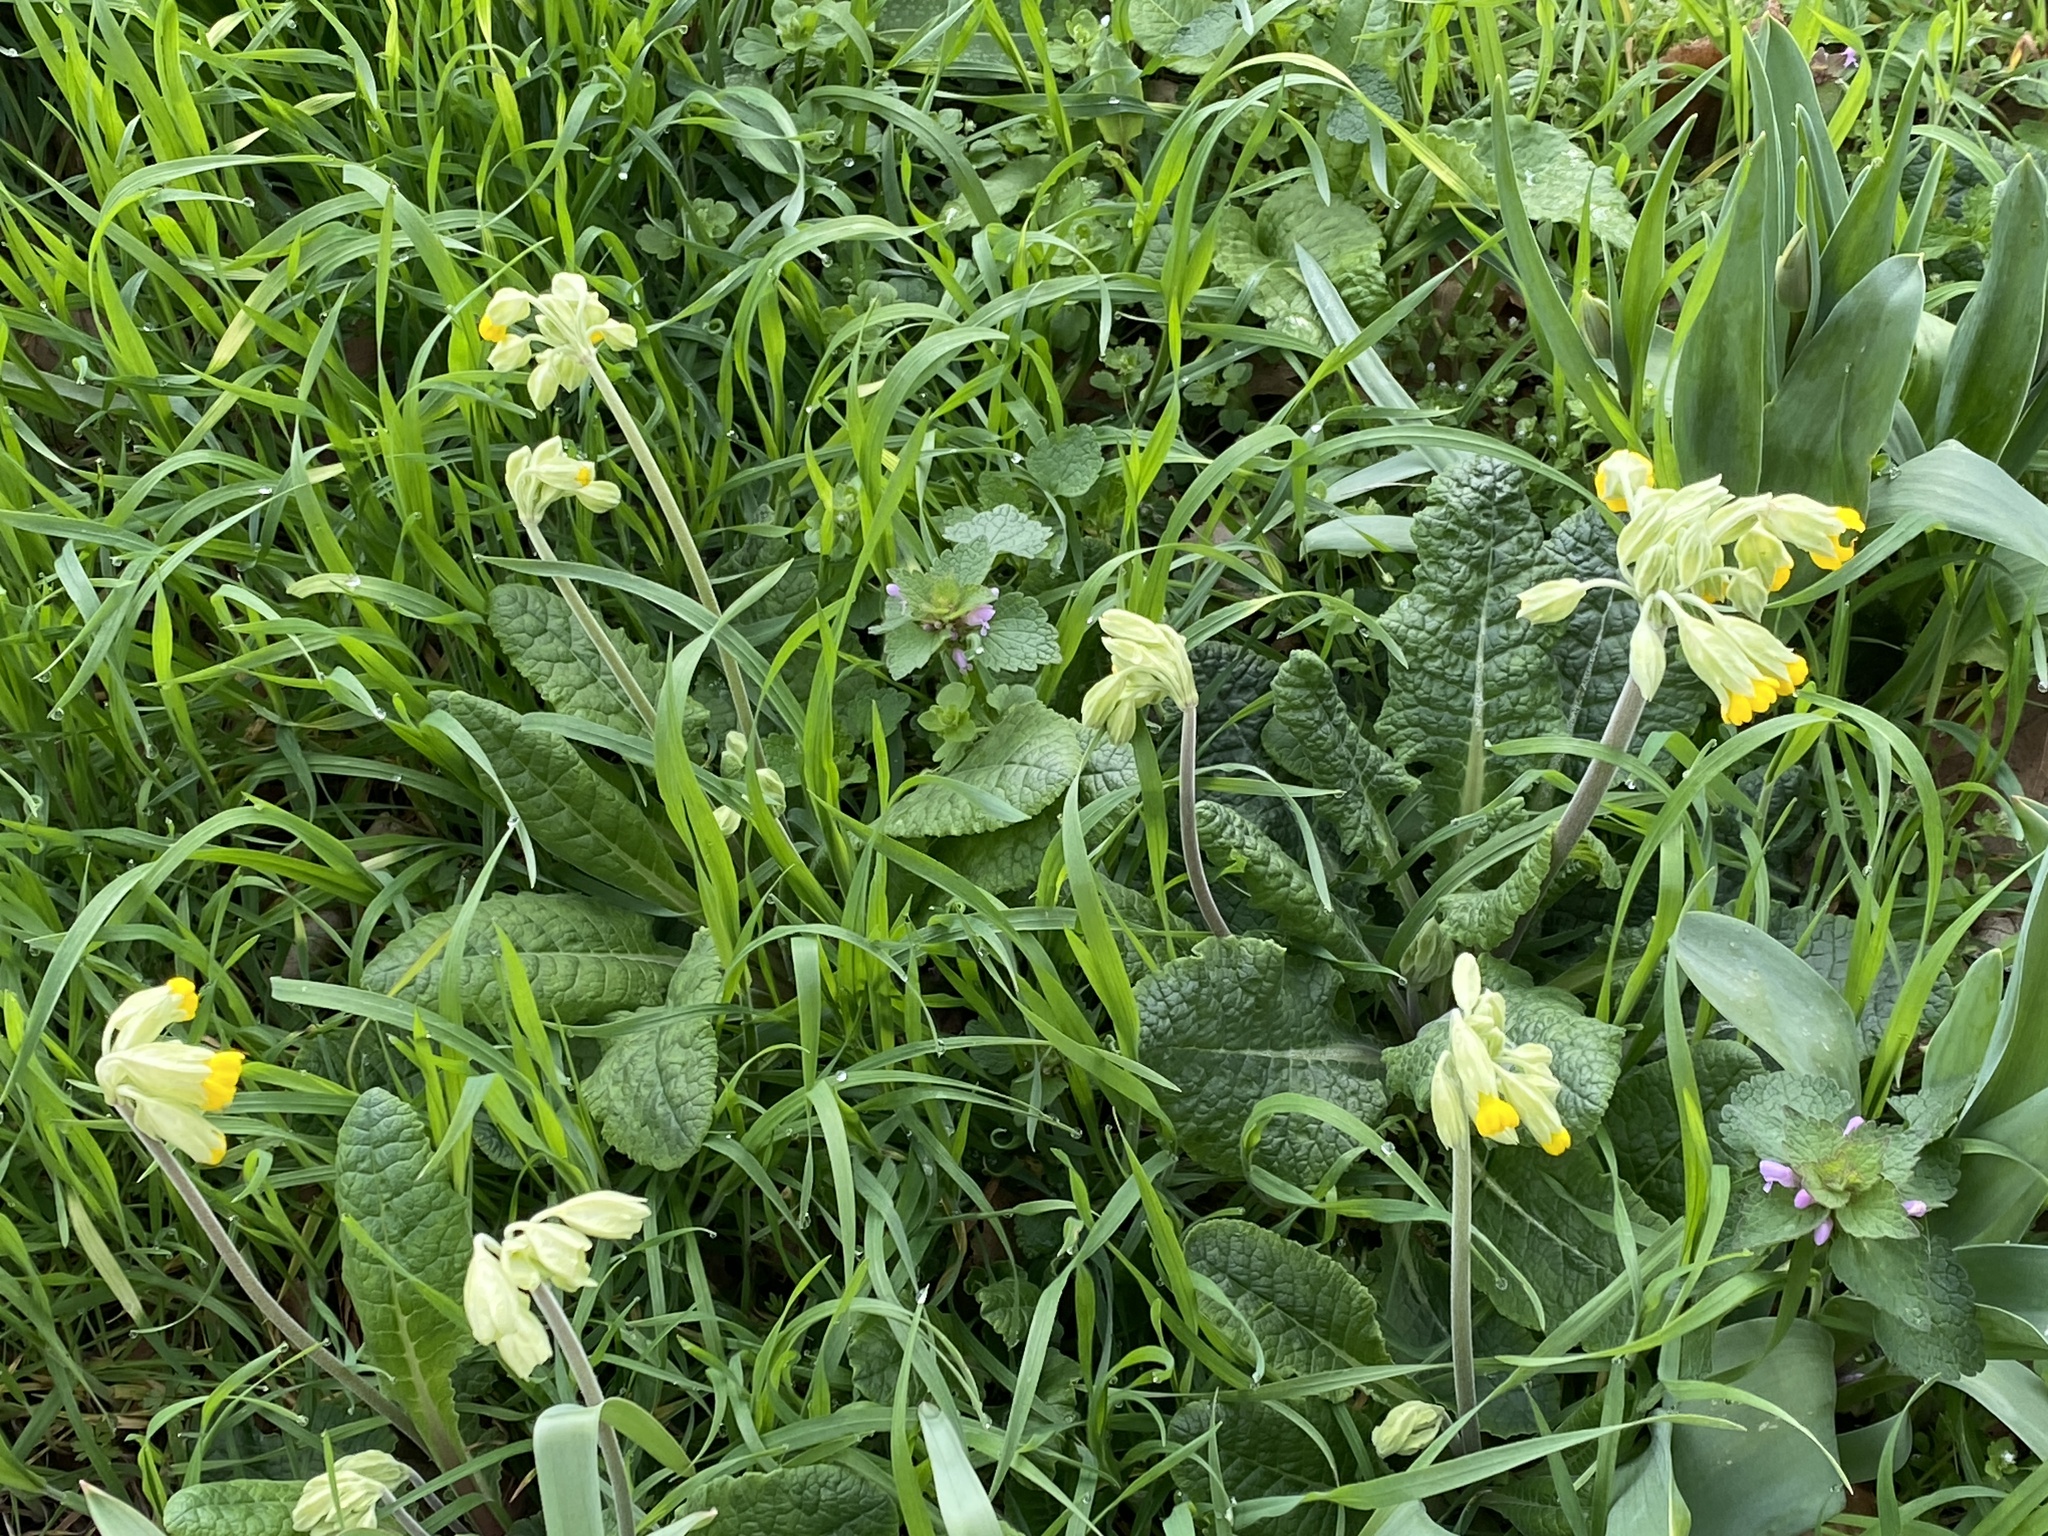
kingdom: Plantae
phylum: Tracheophyta
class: Magnoliopsida
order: Ericales
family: Primulaceae
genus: Primula
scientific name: Primula veris
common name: Cowslip
